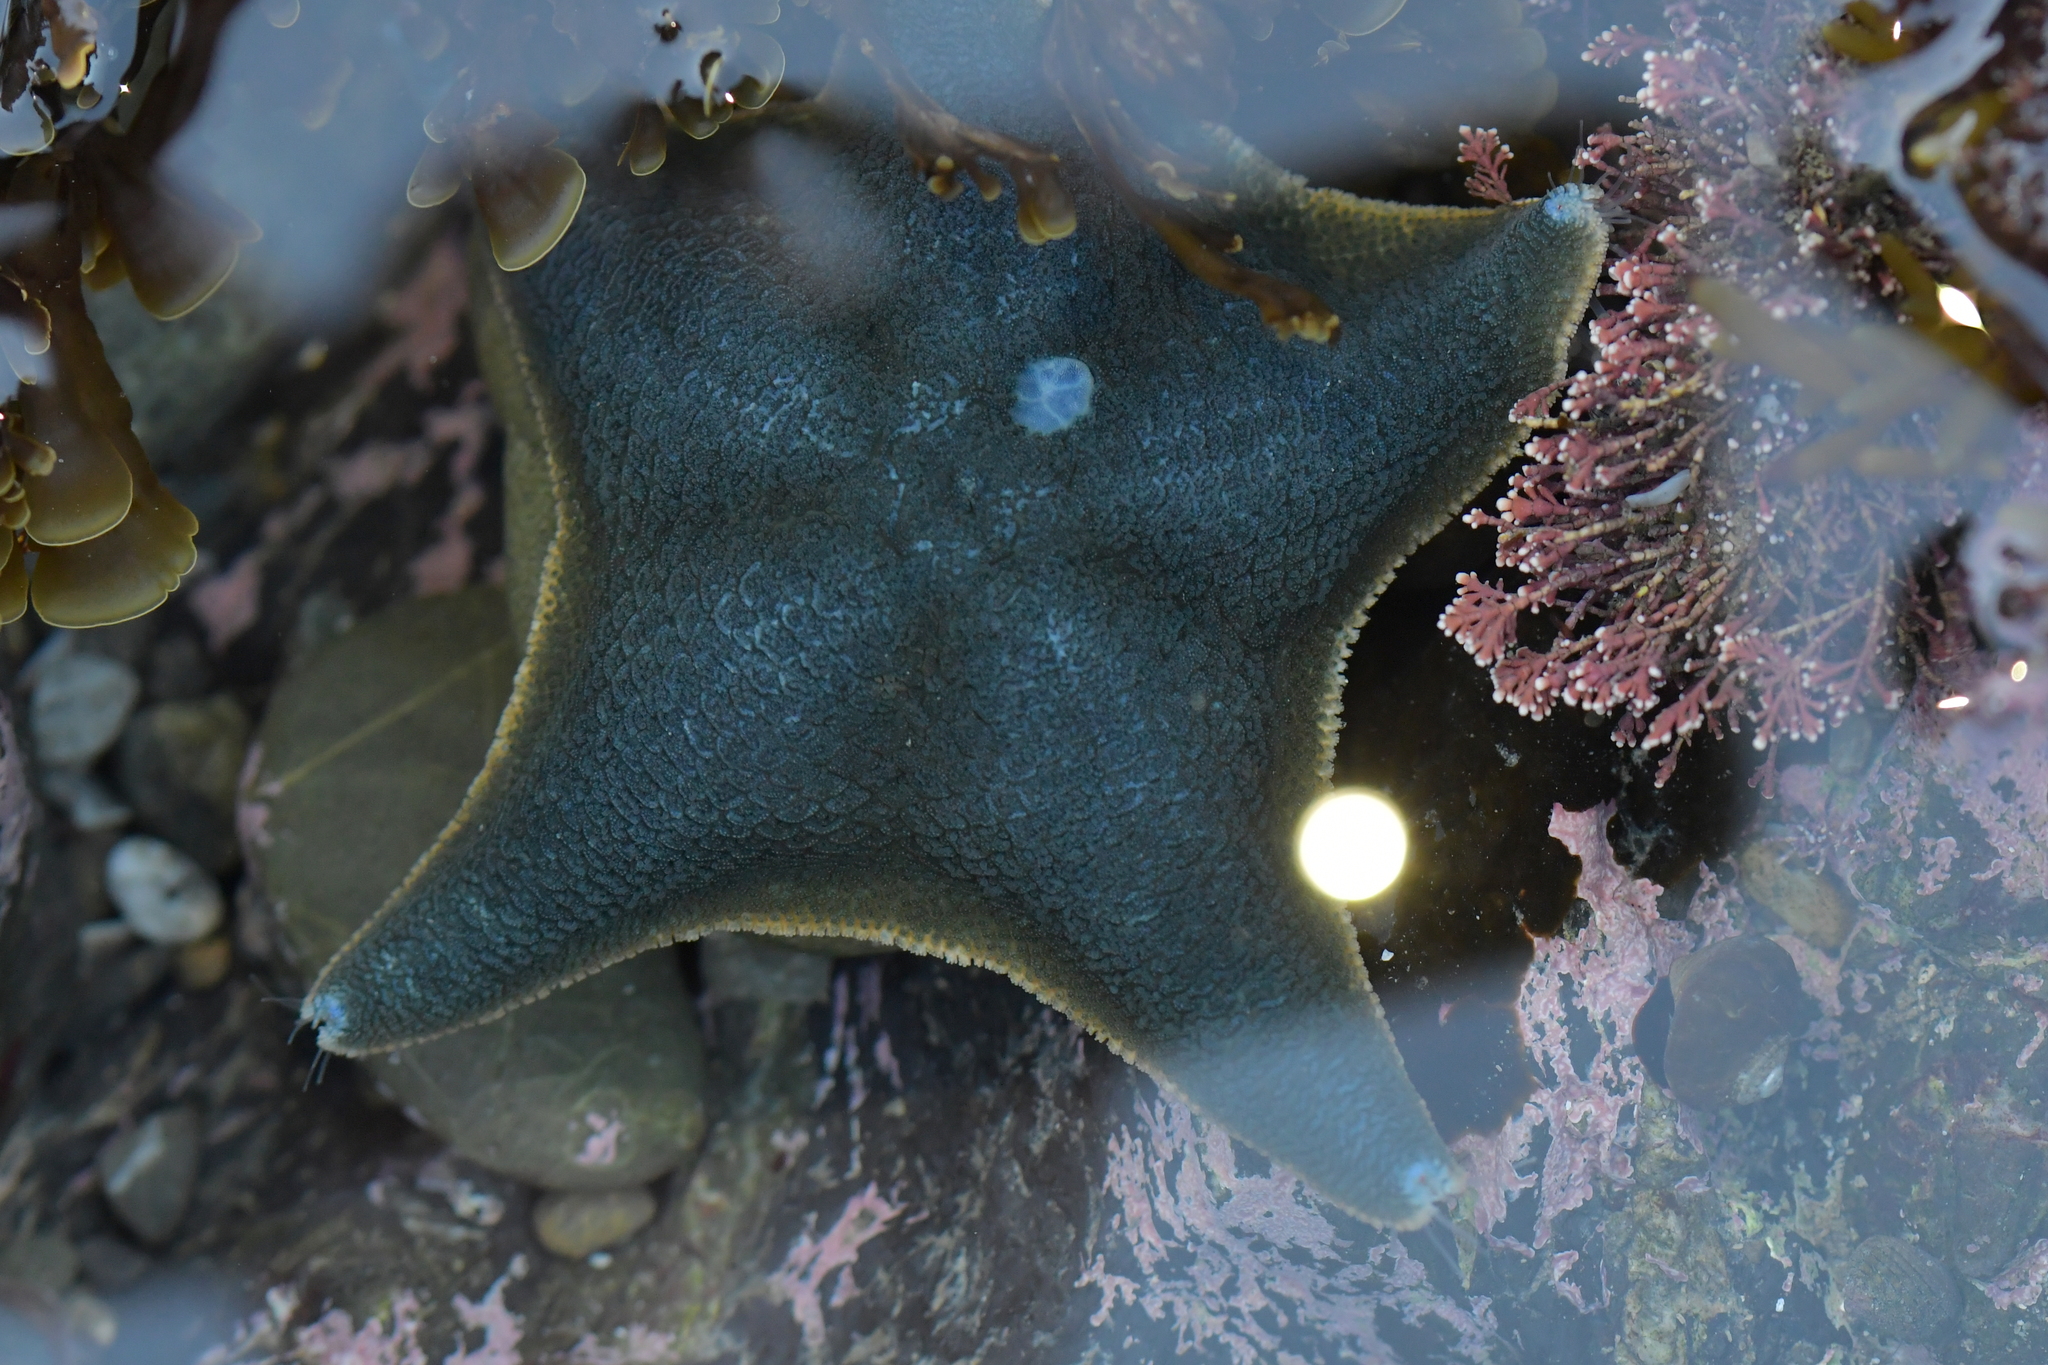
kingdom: Animalia
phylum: Echinodermata
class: Asteroidea
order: Valvatida
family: Asterinidae
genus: Patiriella
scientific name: Patiriella regularis
